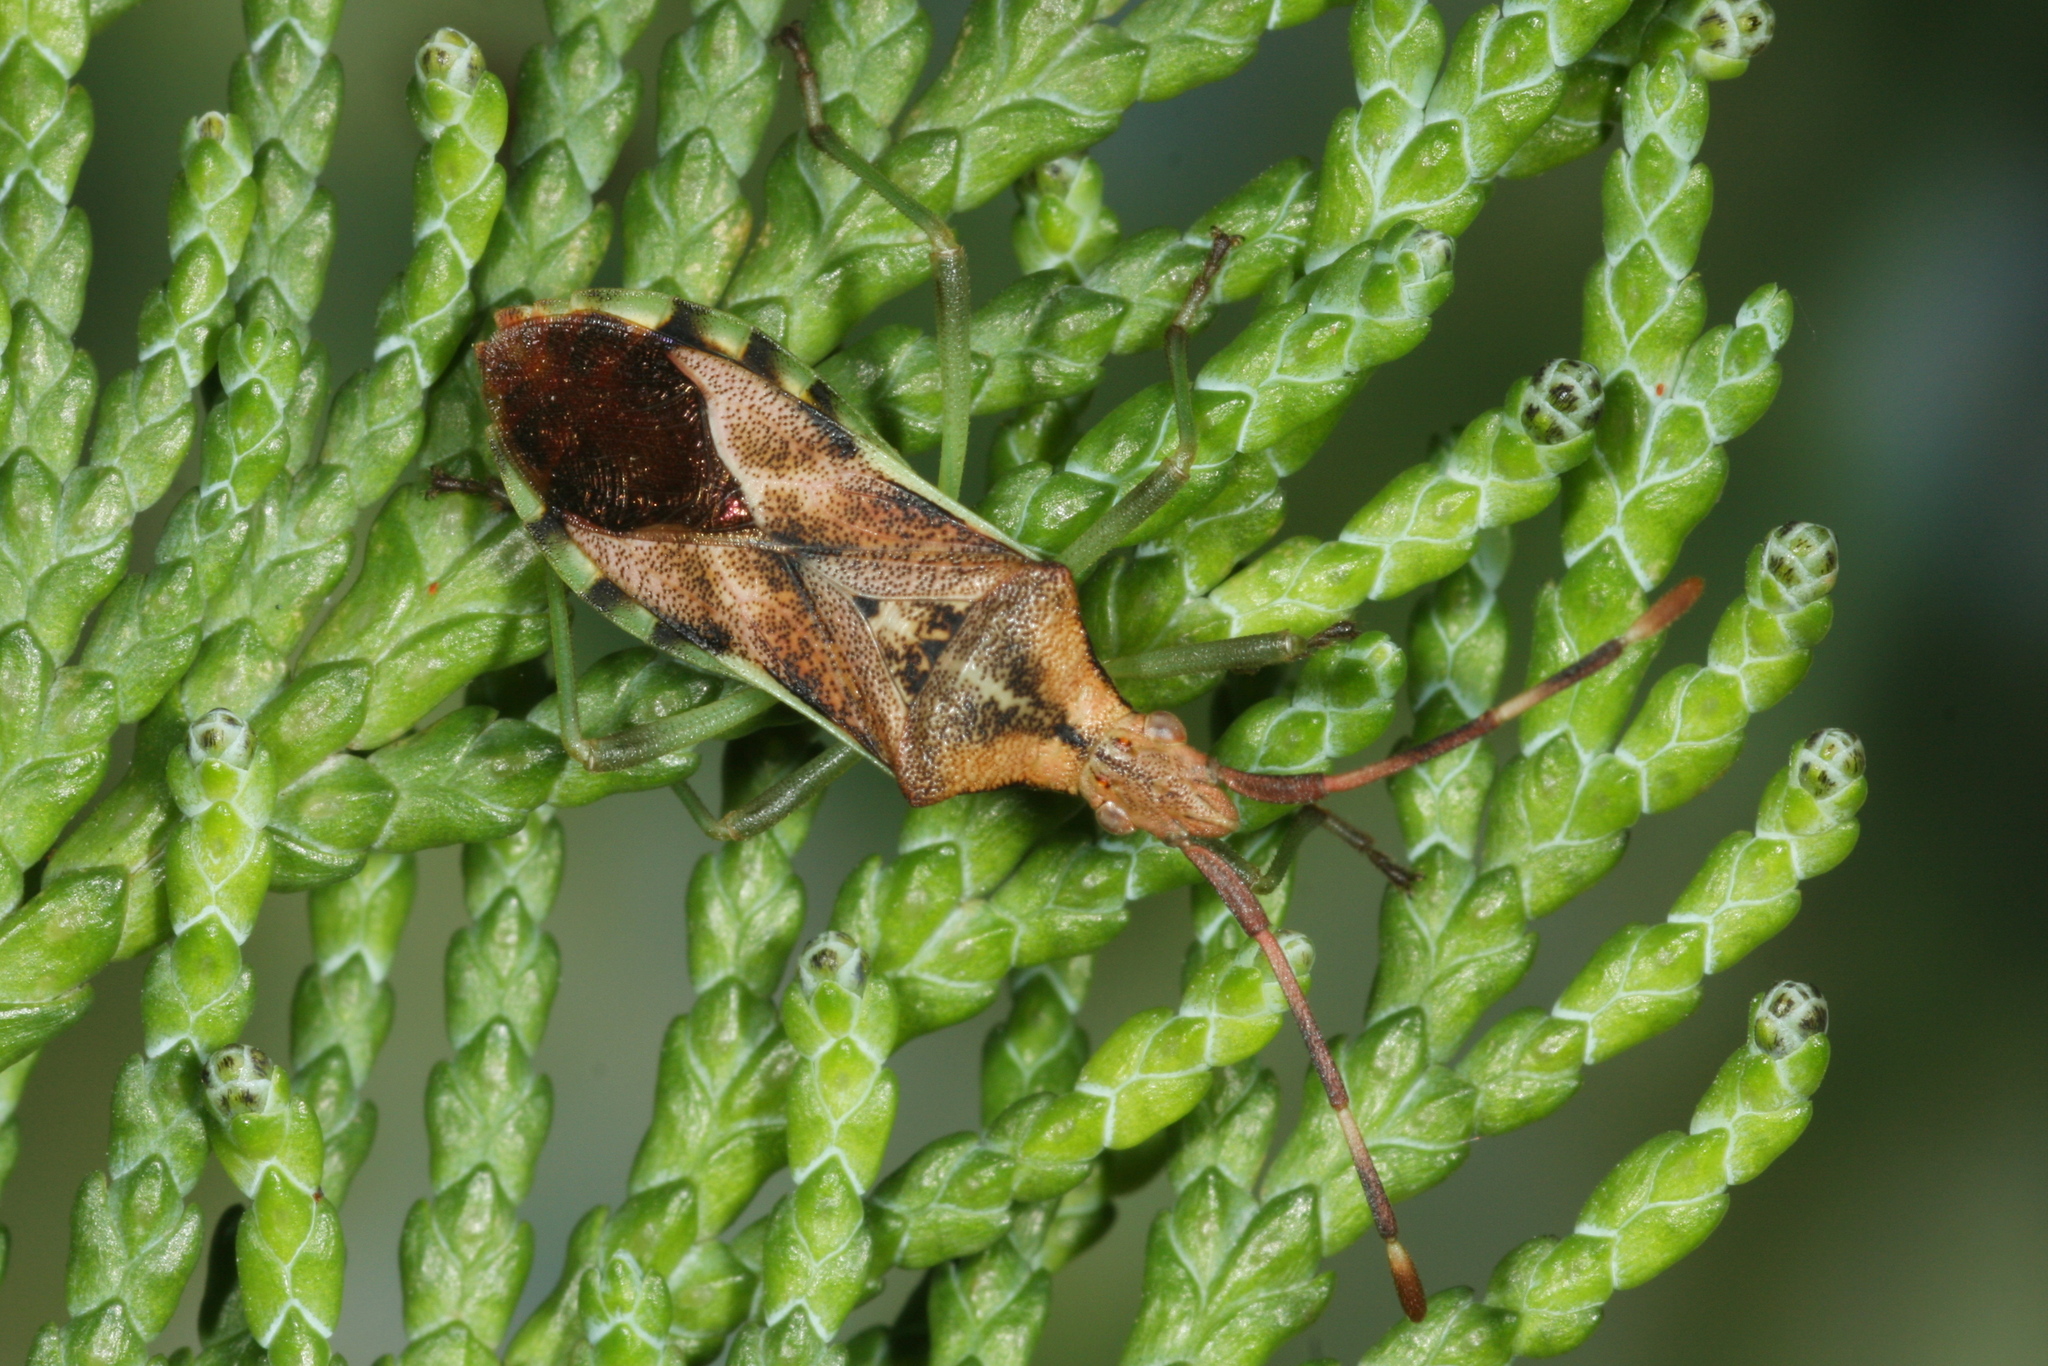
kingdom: Animalia
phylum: Arthropoda
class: Insecta
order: Hemiptera
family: Coreidae
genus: Gonocerus
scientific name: Gonocerus juniperi
